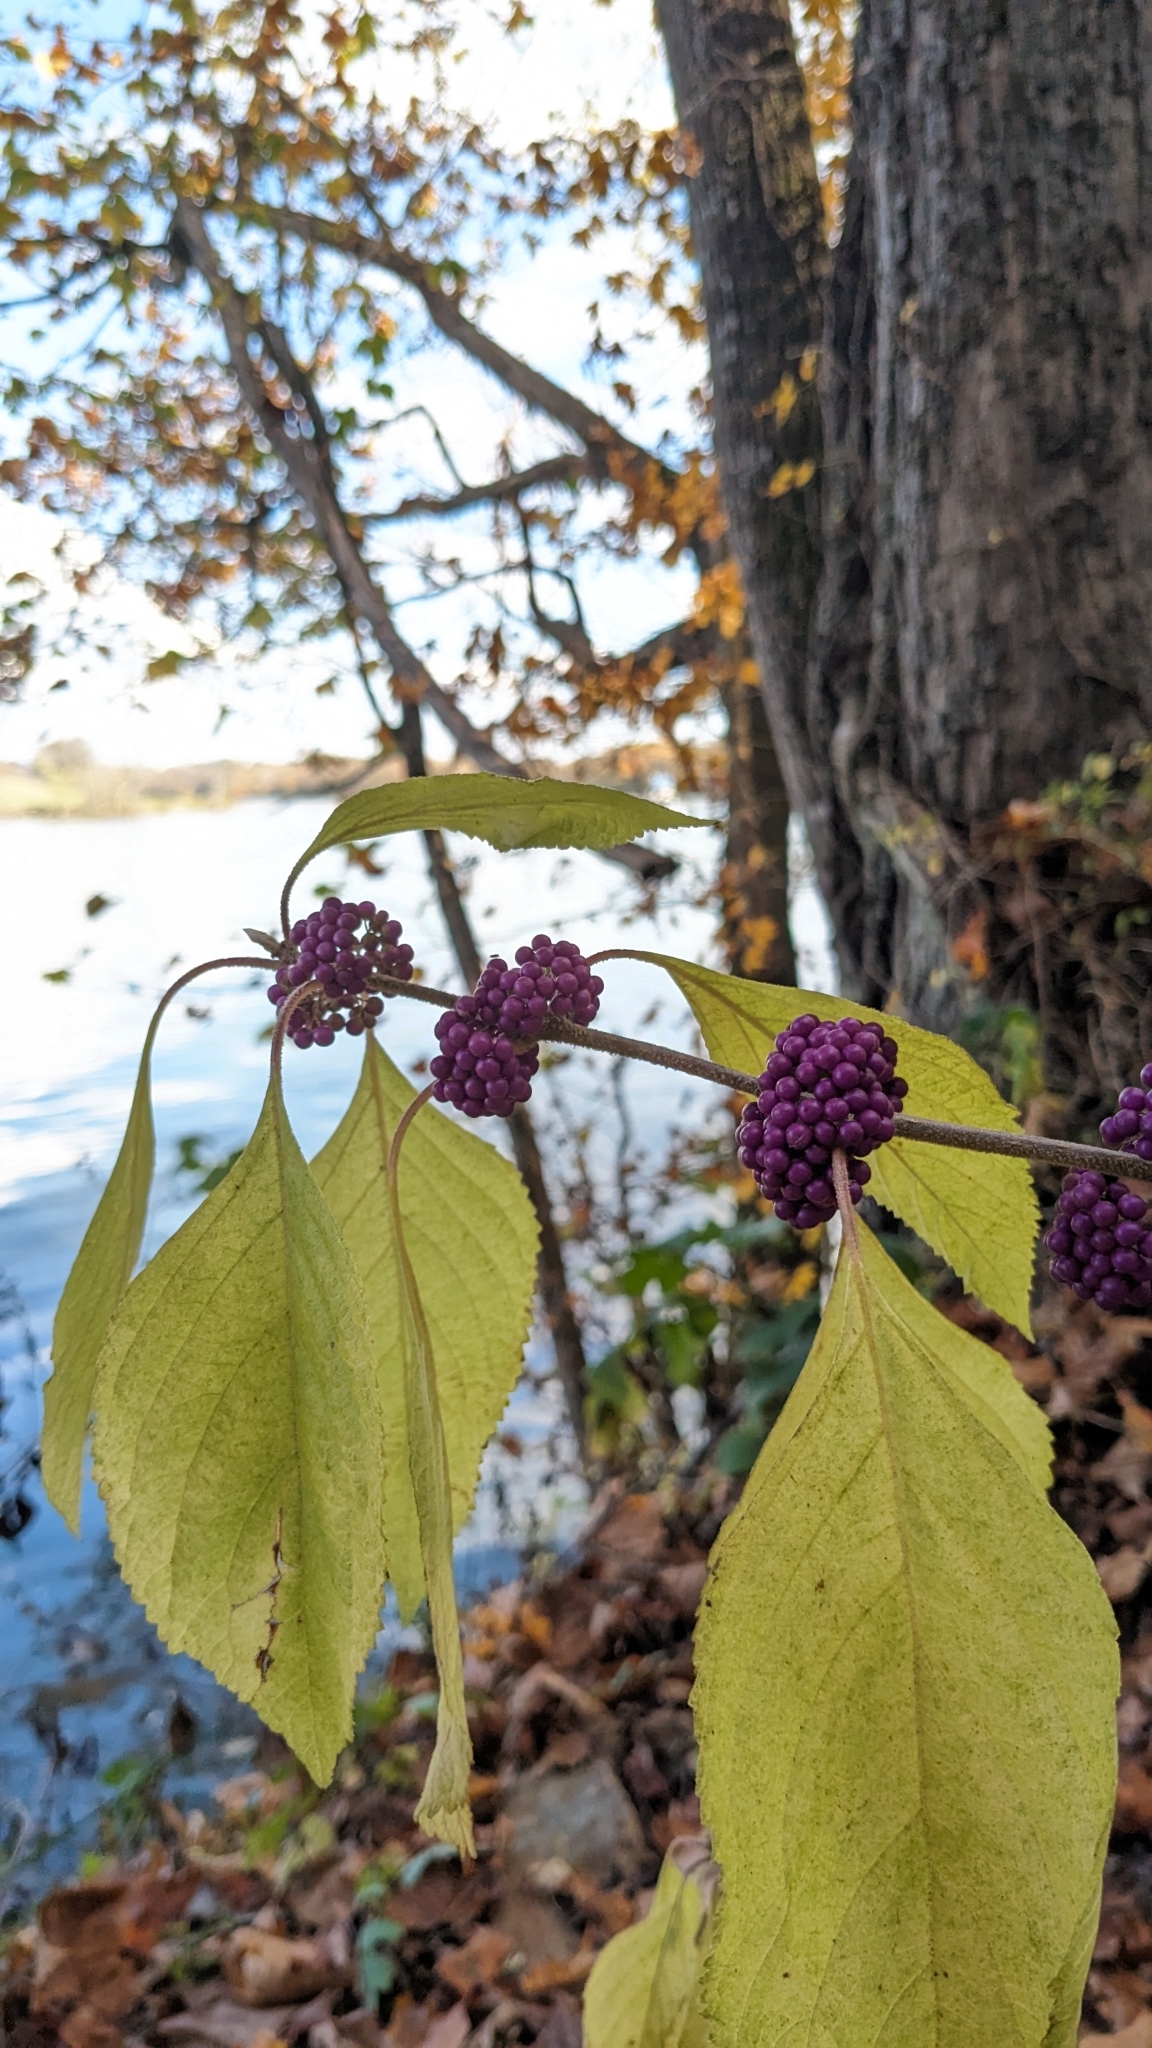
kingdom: Plantae
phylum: Tracheophyta
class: Magnoliopsida
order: Lamiales
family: Lamiaceae
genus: Callicarpa
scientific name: Callicarpa americana
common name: American beautyberry
